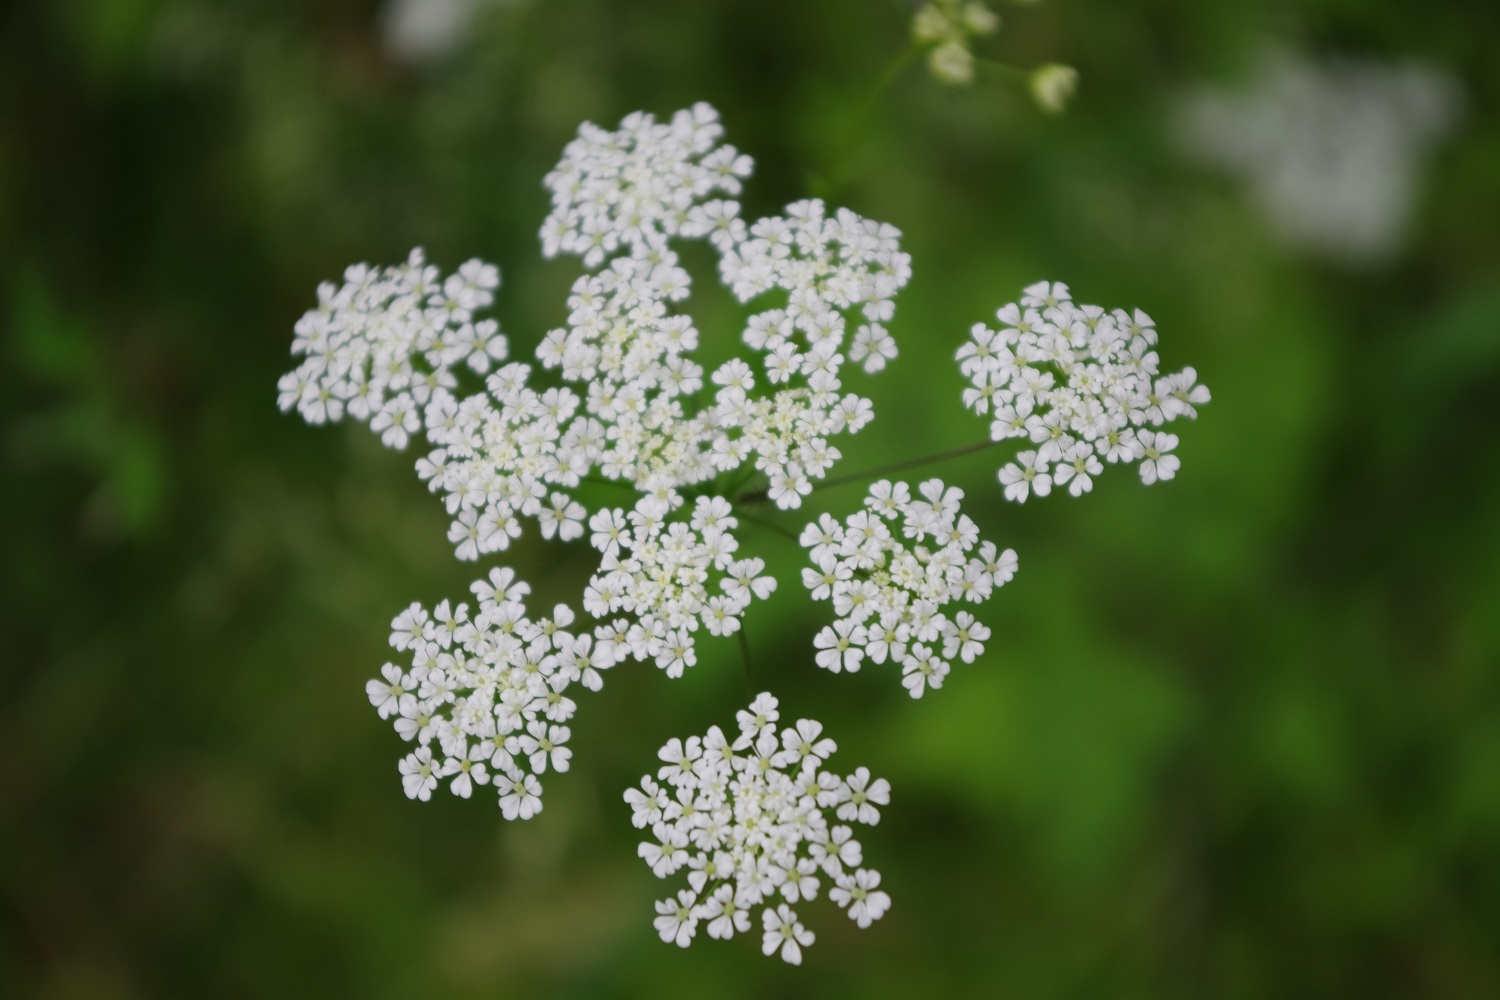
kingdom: Plantae
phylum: Tracheophyta
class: Magnoliopsida
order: Apiales
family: Apiaceae
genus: Chaerophyllum
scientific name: Chaerophyllum temulum
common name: Rough chervil
